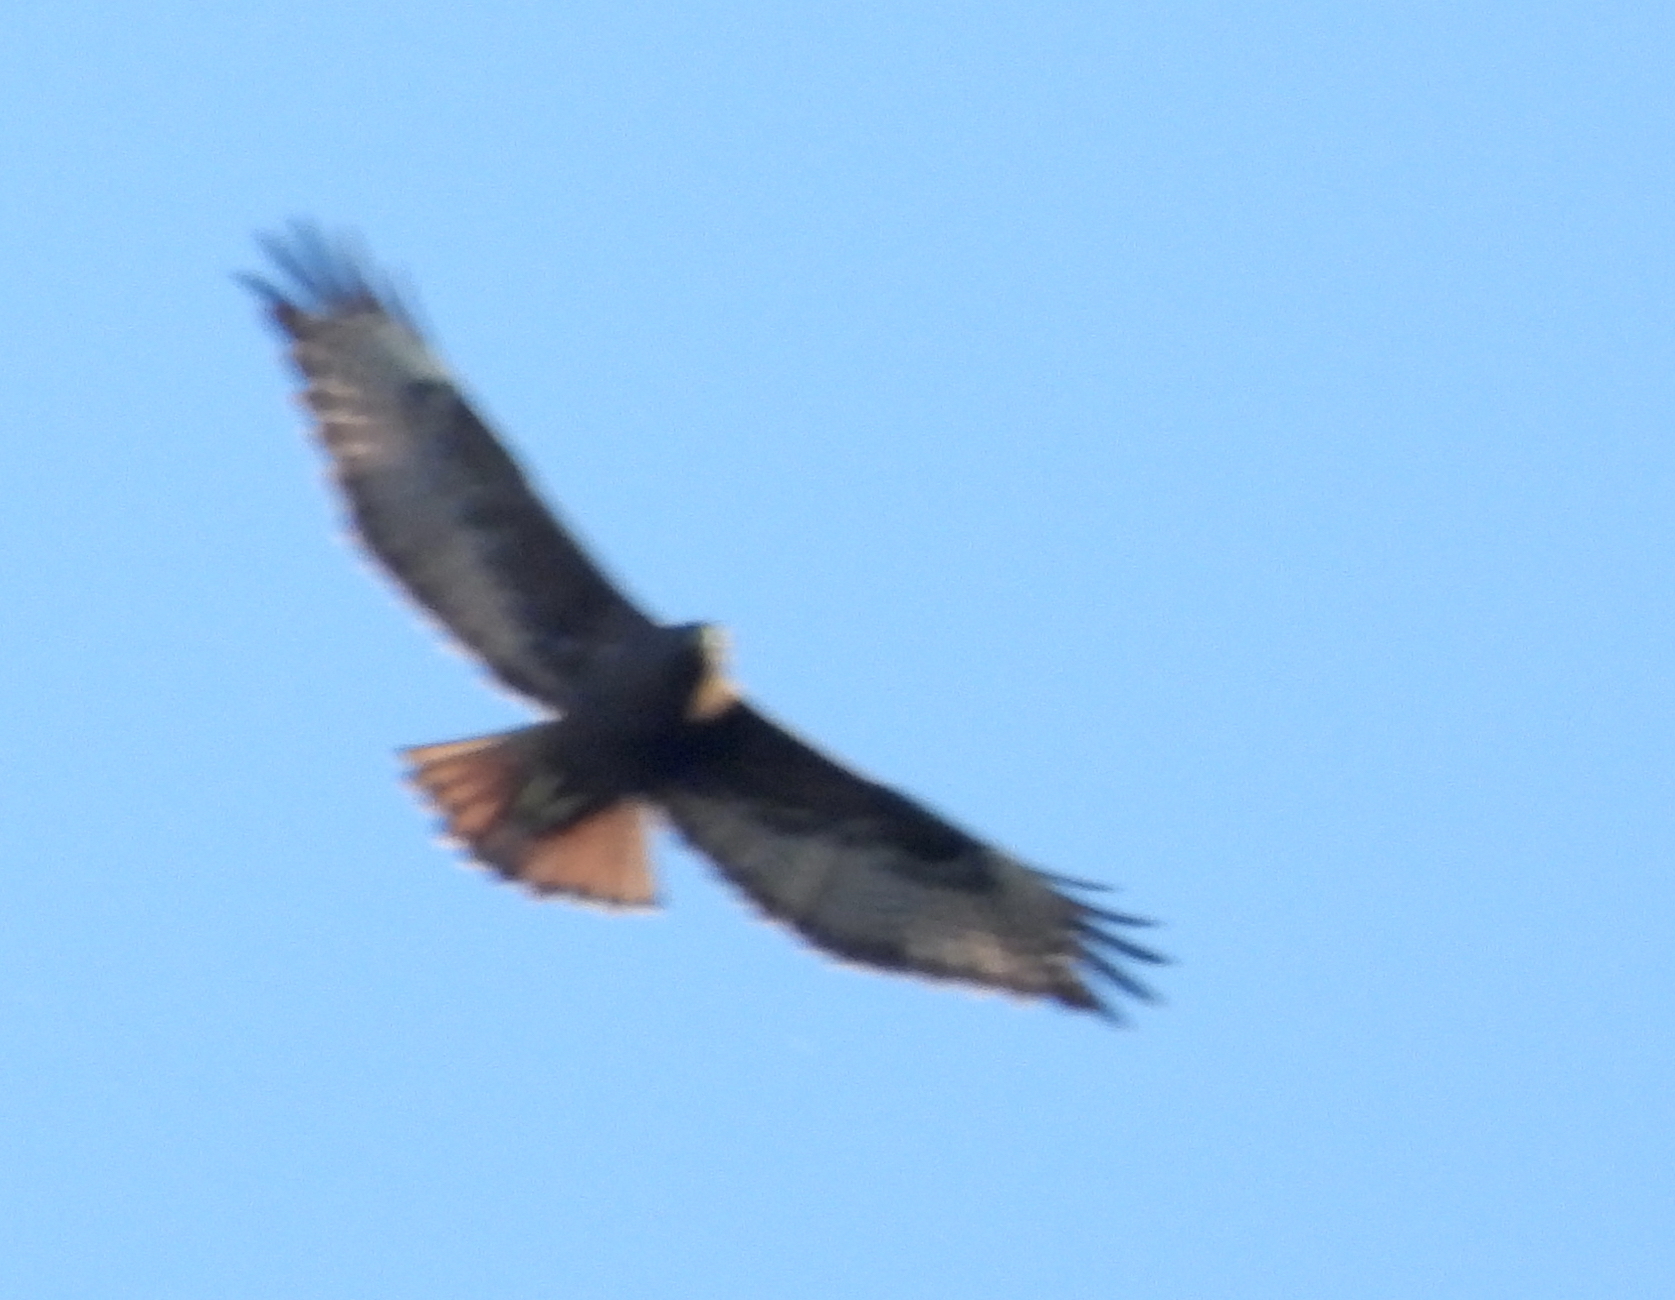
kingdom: Animalia
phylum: Chordata
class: Aves
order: Accipitriformes
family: Accipitridae
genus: Buteo
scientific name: Buteo jamaicensis
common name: Red-tailed hawk
